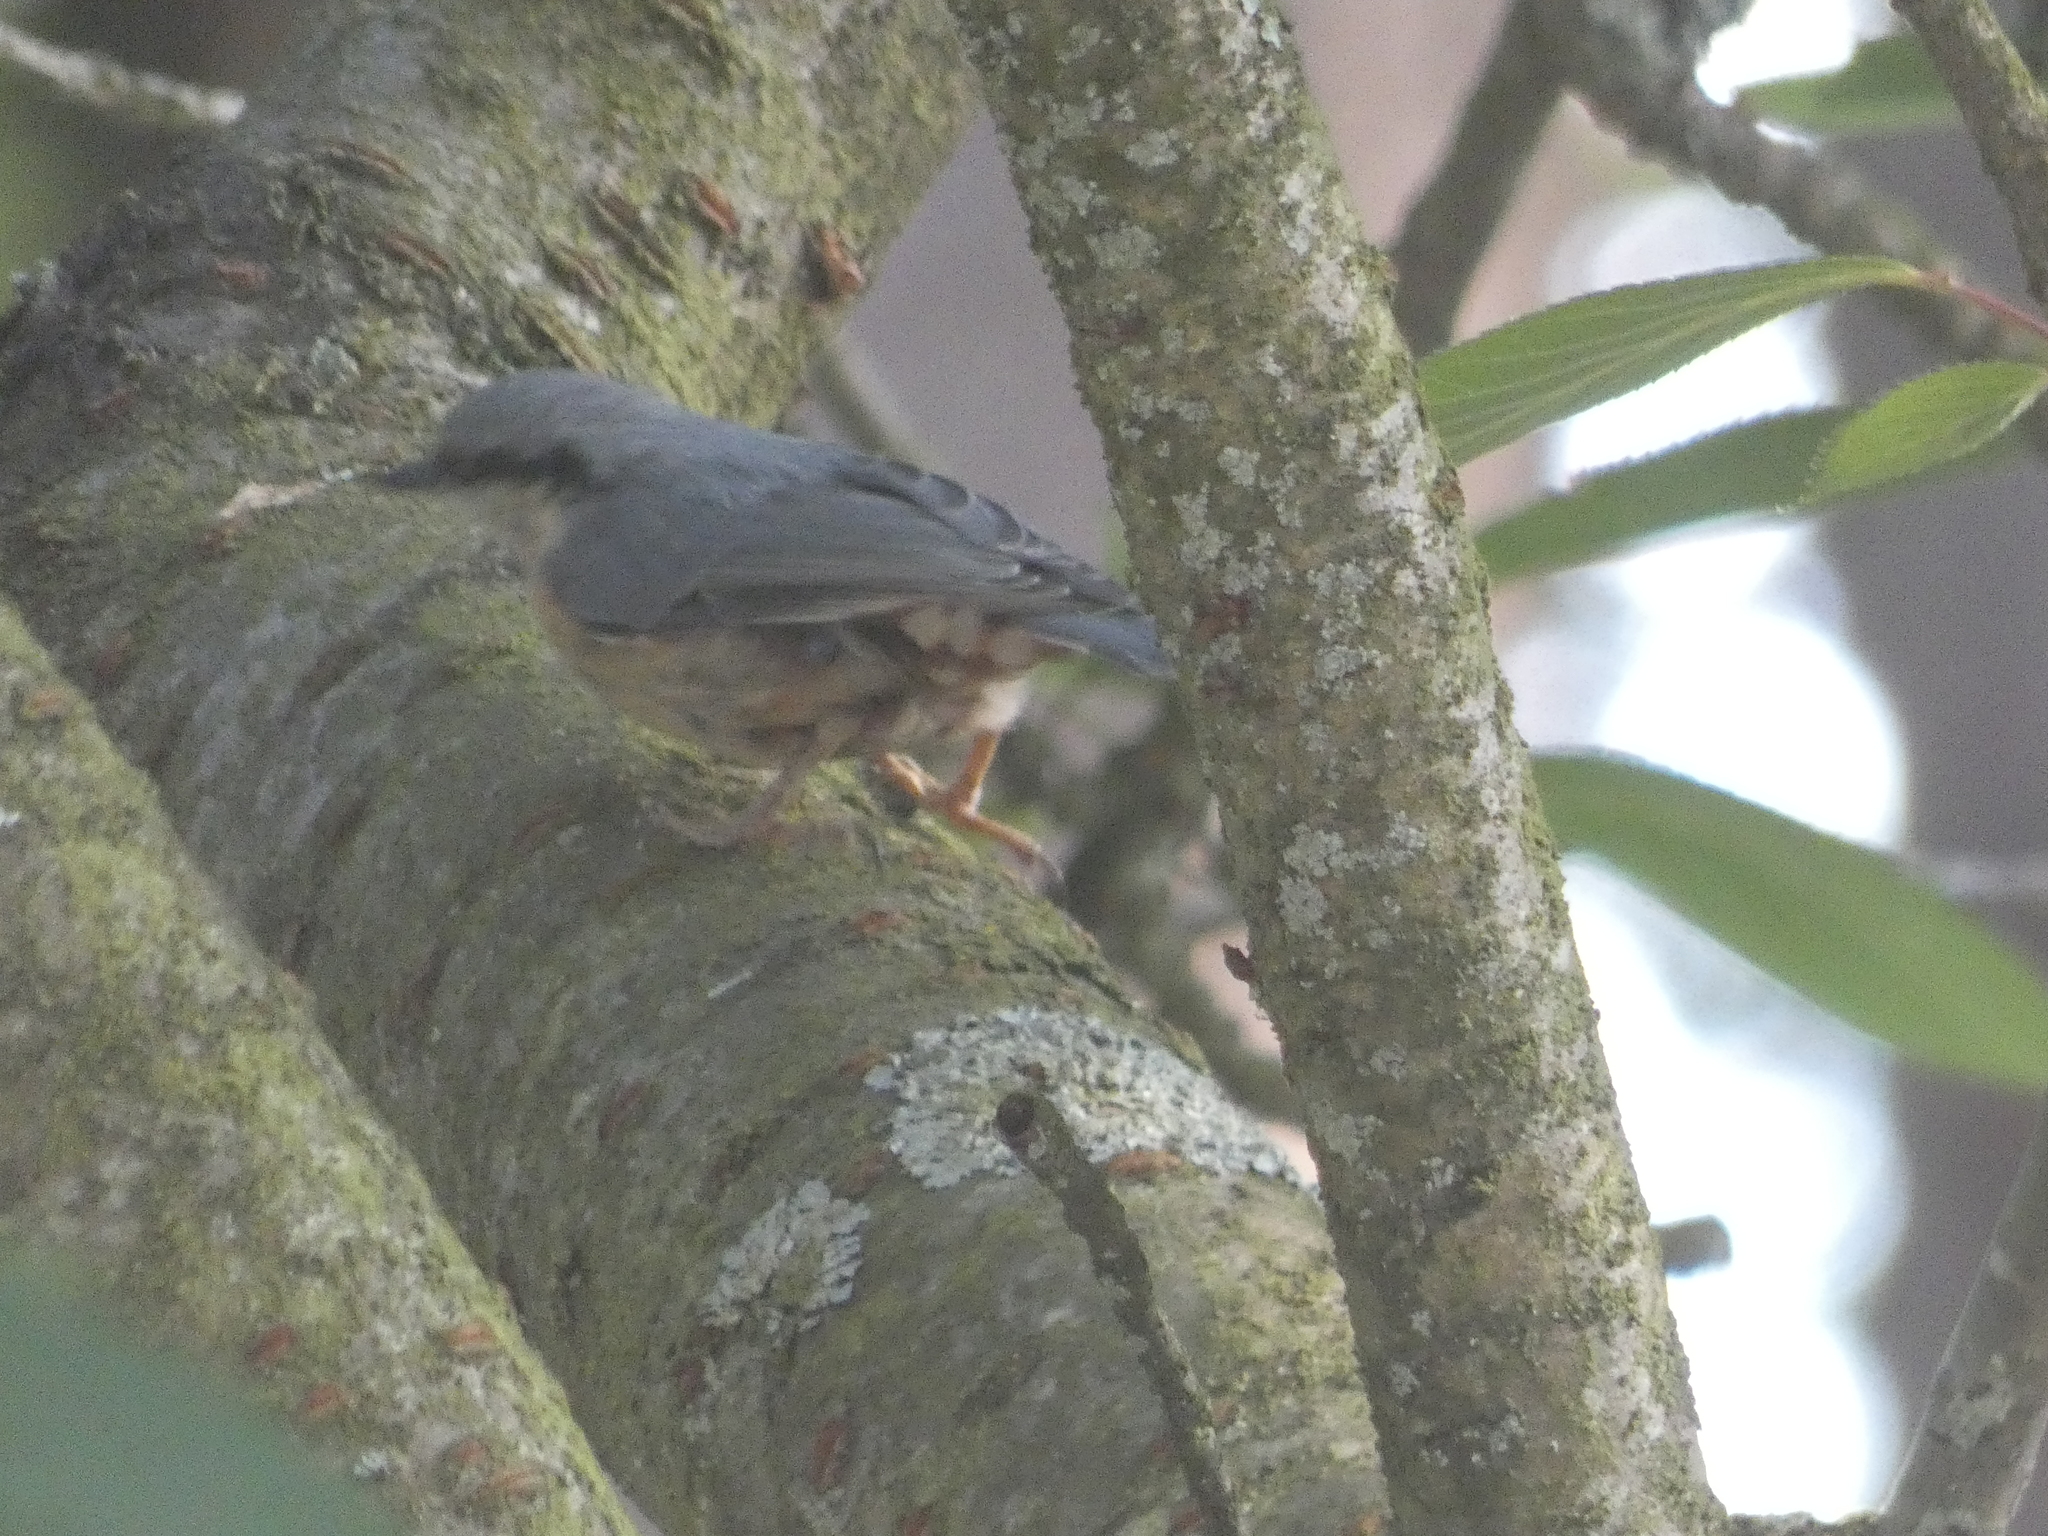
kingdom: Animalia
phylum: Chordata
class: Aves
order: Passeriformes
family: Sittidae
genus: Sitta
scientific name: Sitta europaea
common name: Eurasian nuthatch
